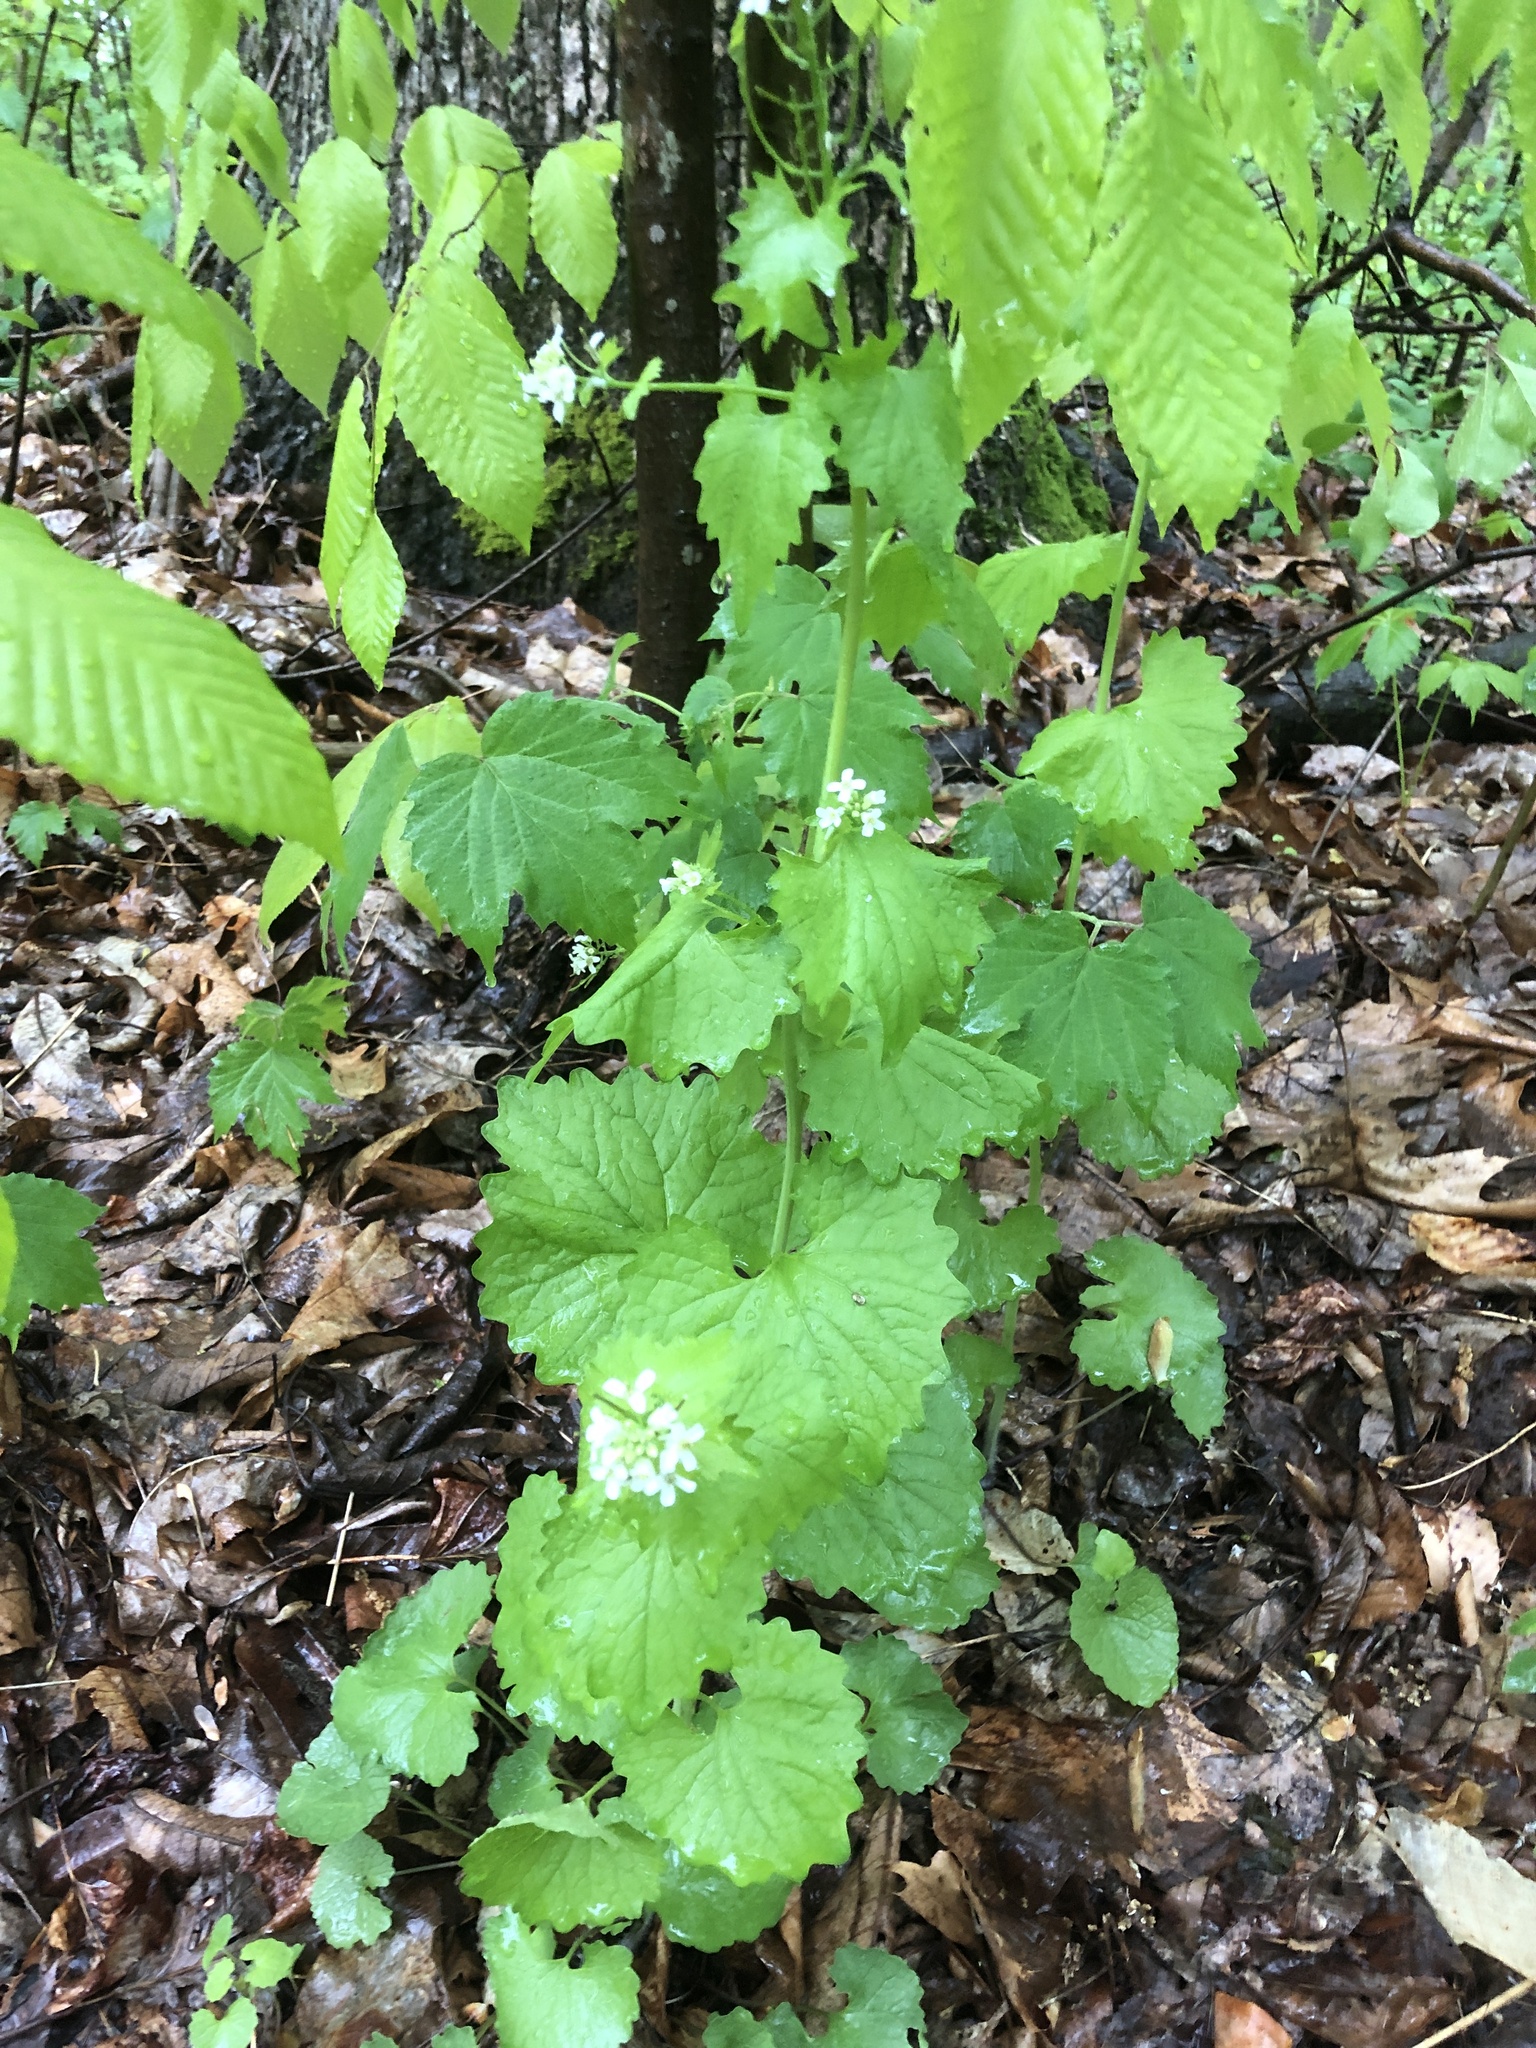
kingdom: Plantae
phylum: Tracheophyta
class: Magnoliopsida
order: Brassicales
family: Brassicaceae
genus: Alliaria
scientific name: Alliaria petiolata
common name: Garlic mustard
